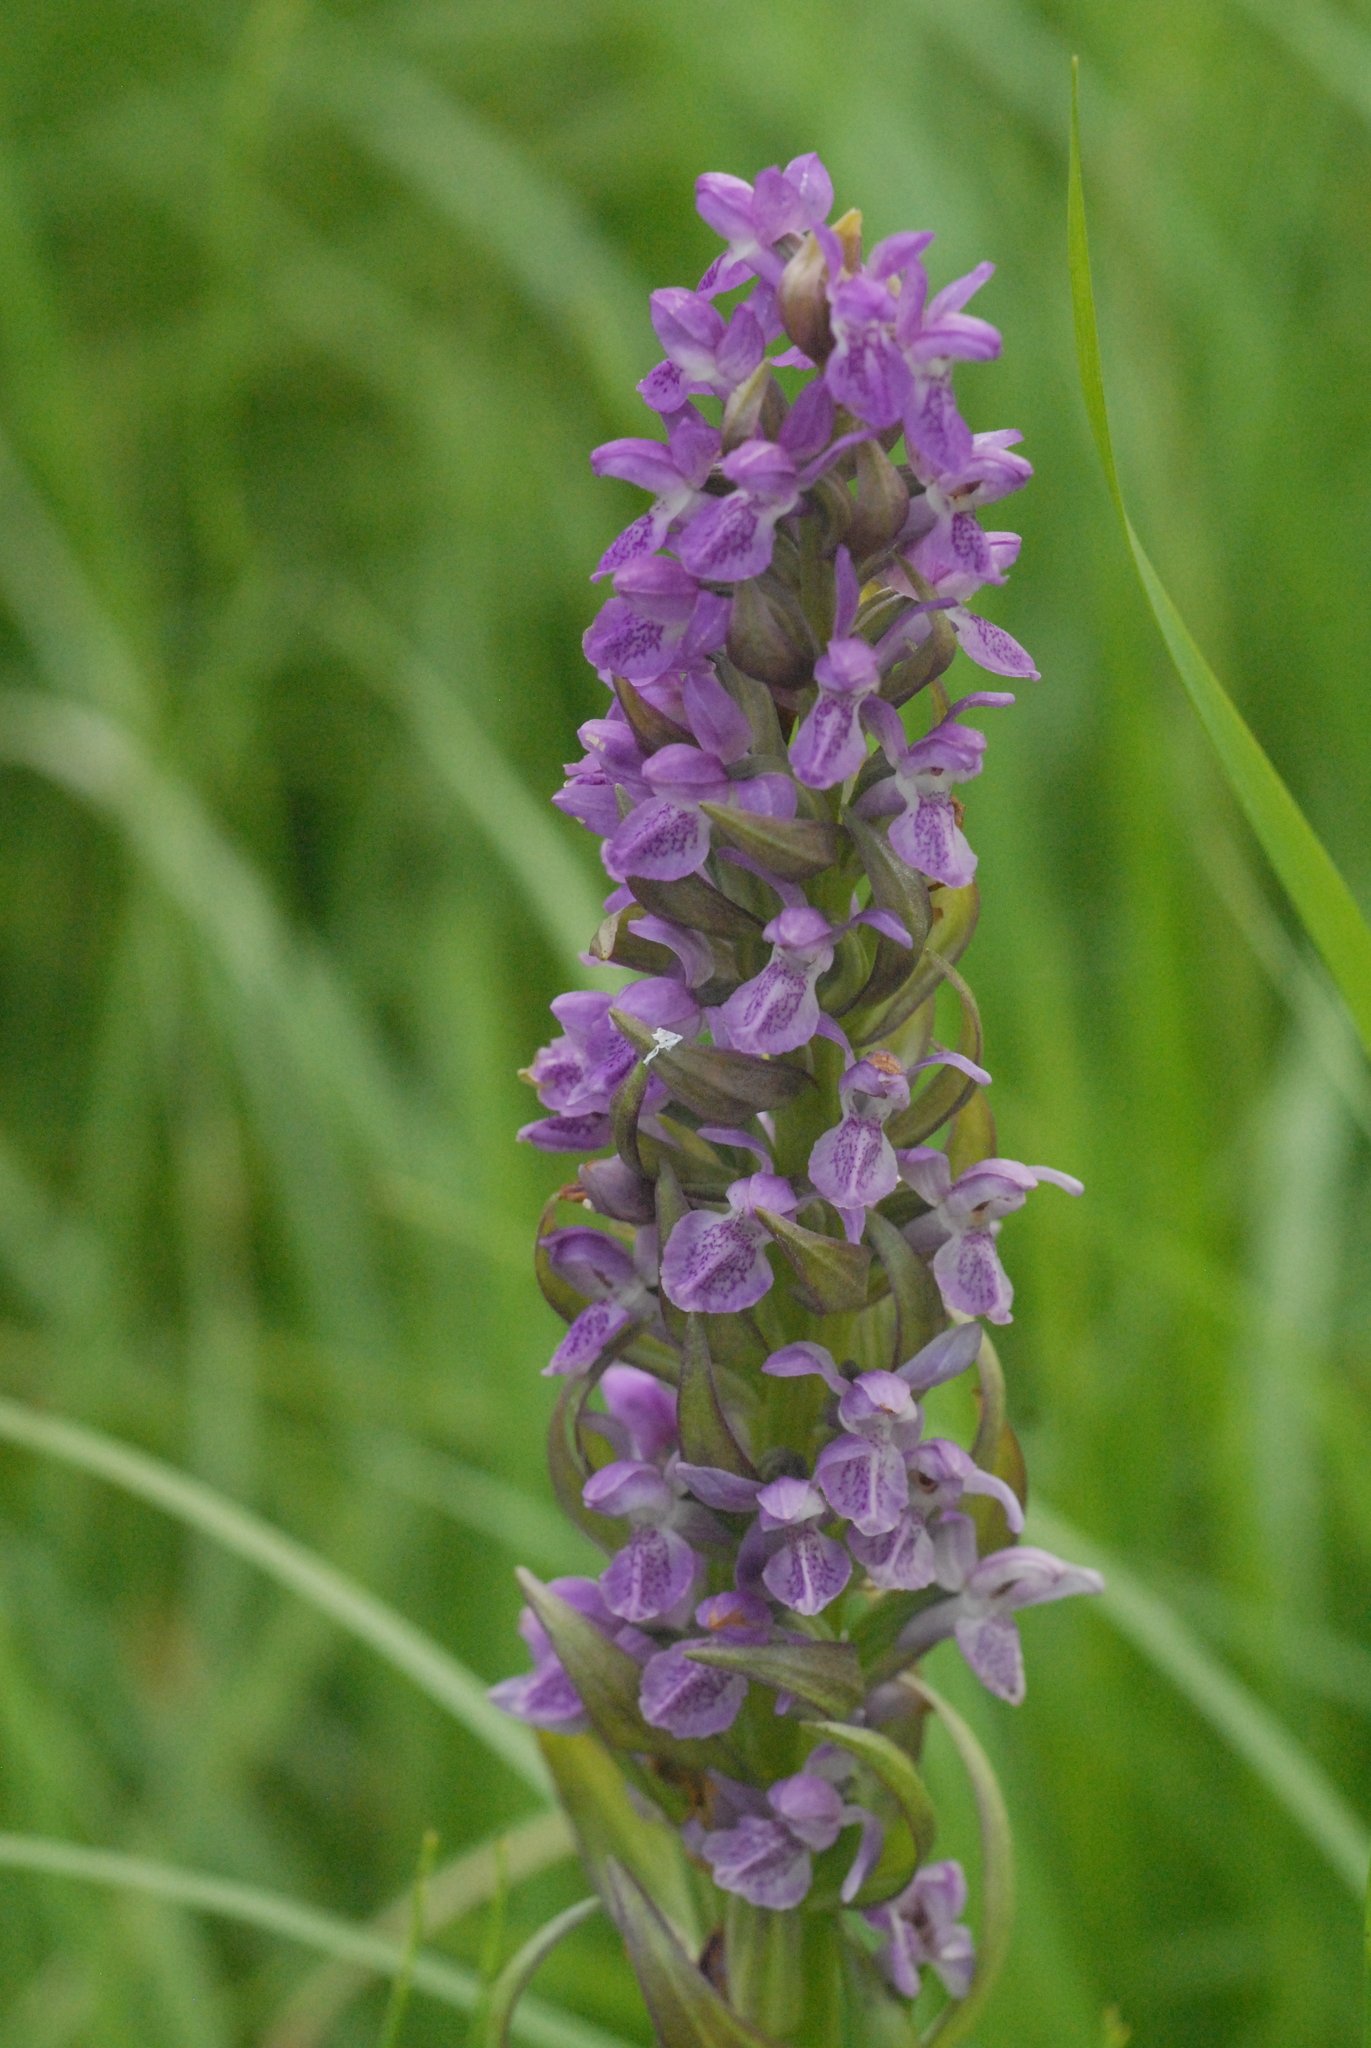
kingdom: Plantae
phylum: Tracheophyta
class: Liliopsida
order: Asparagales
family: Orchidaceae
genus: Dactylorhiza
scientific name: Dactylorhiza incarnata
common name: Early marsh-orchid
